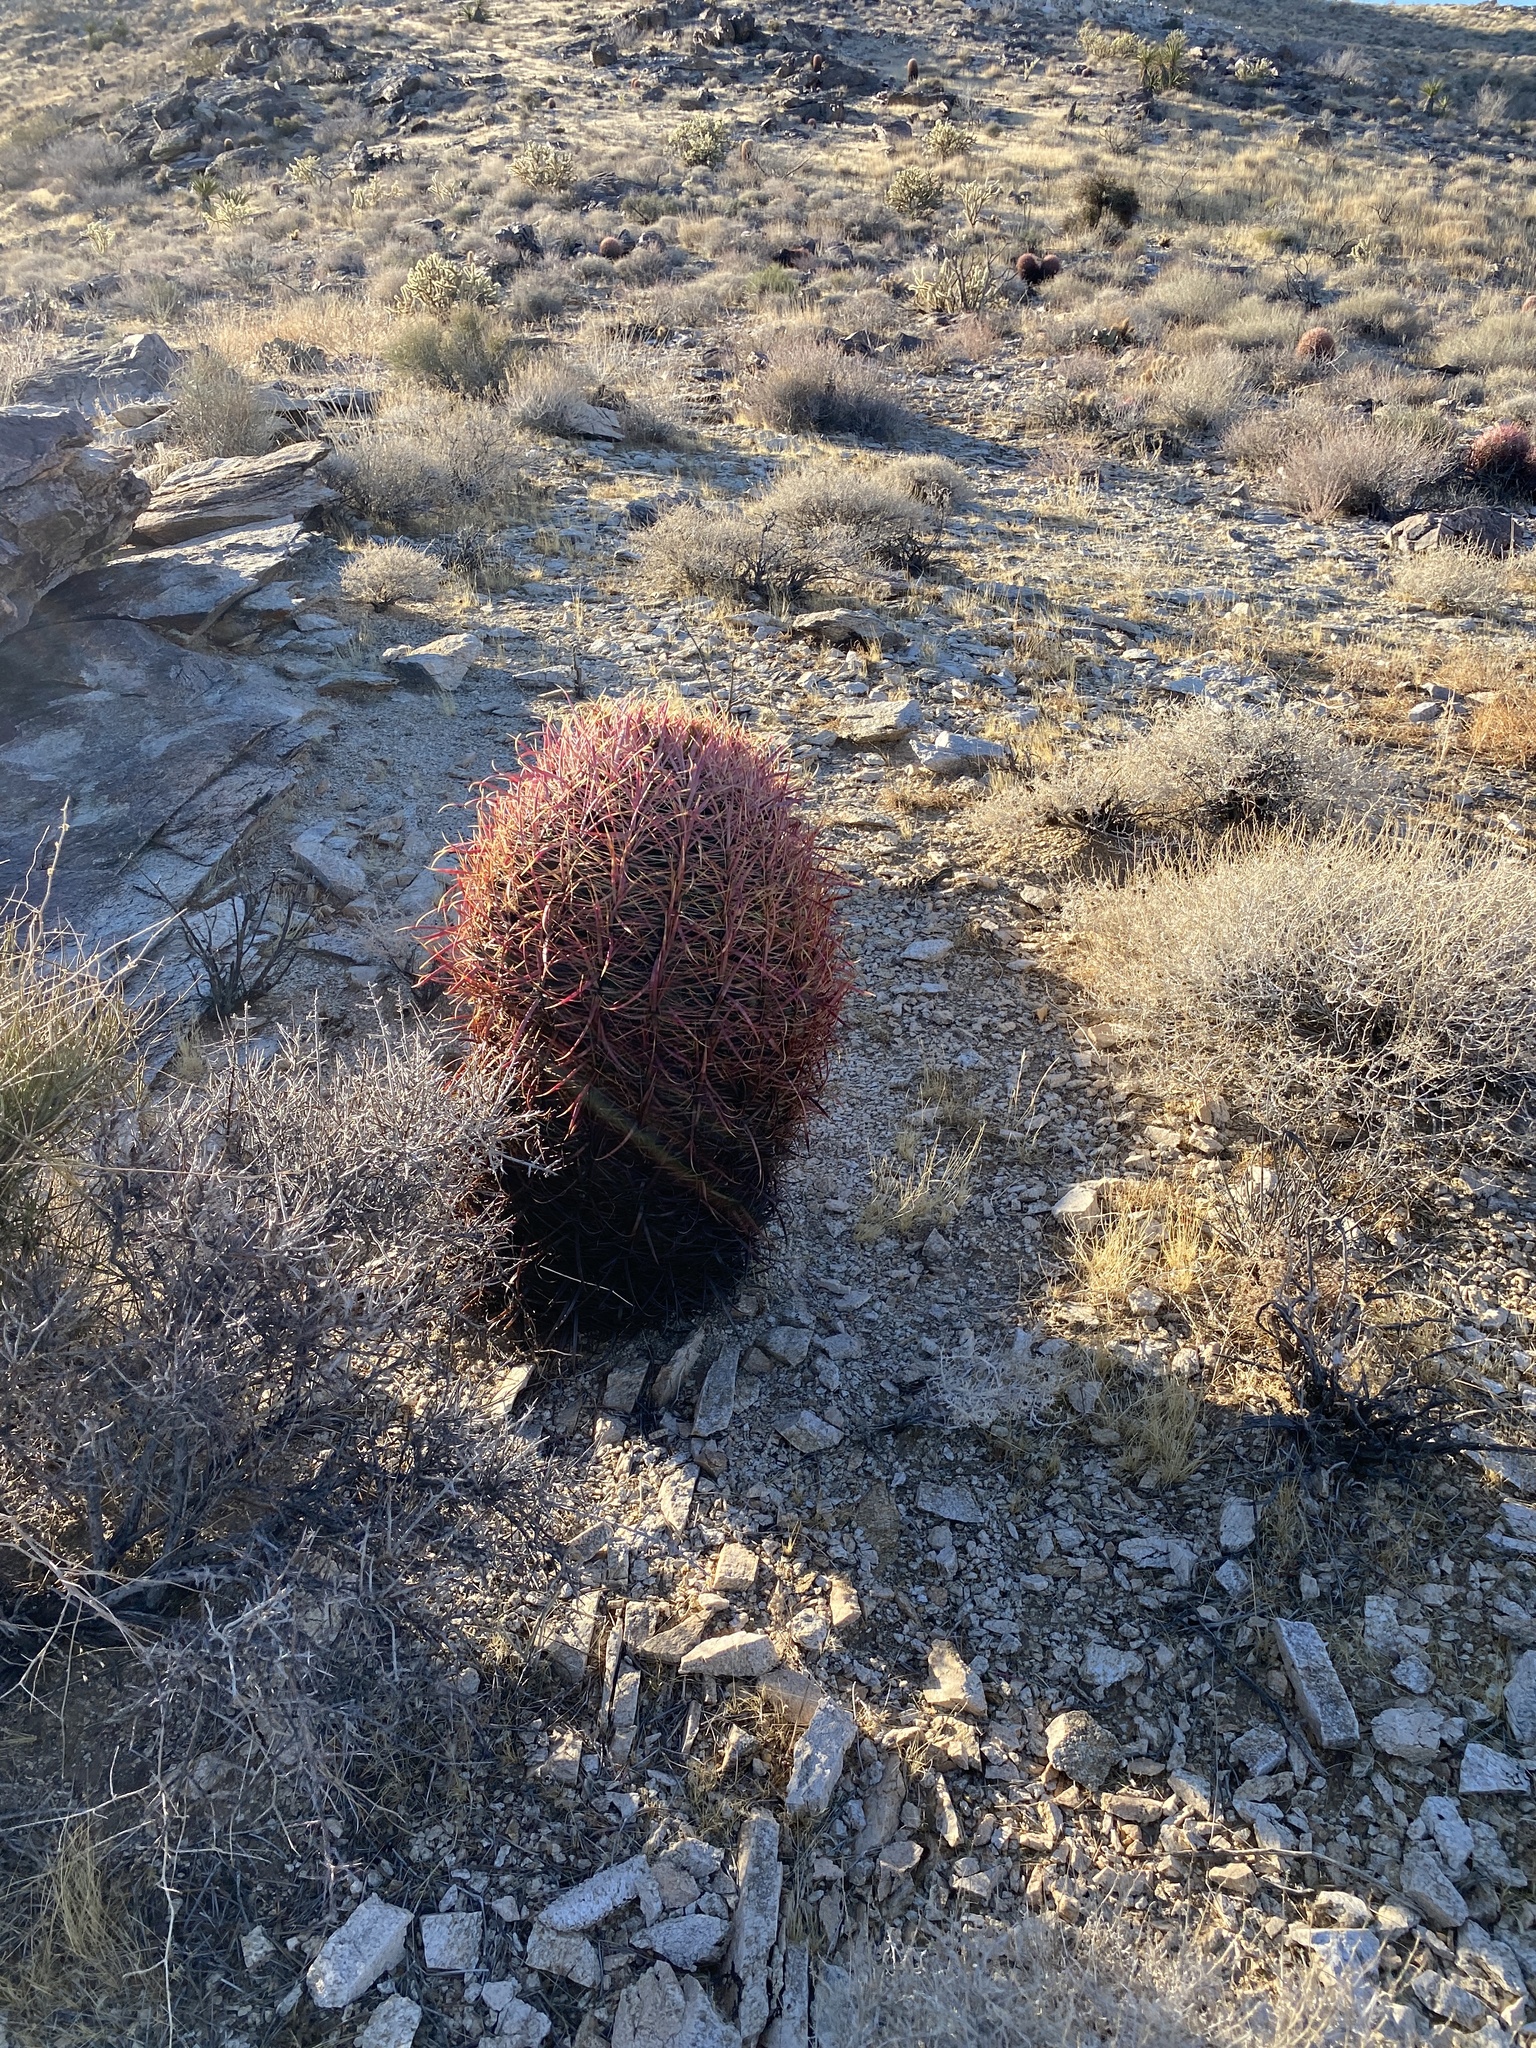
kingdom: Plantae
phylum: Tracheophyta
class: Magnoliopsida
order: Caryophyllales
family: Cactaceae
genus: Ferocactus
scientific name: Ferocactus cylindraceus
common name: California barrel cactus
